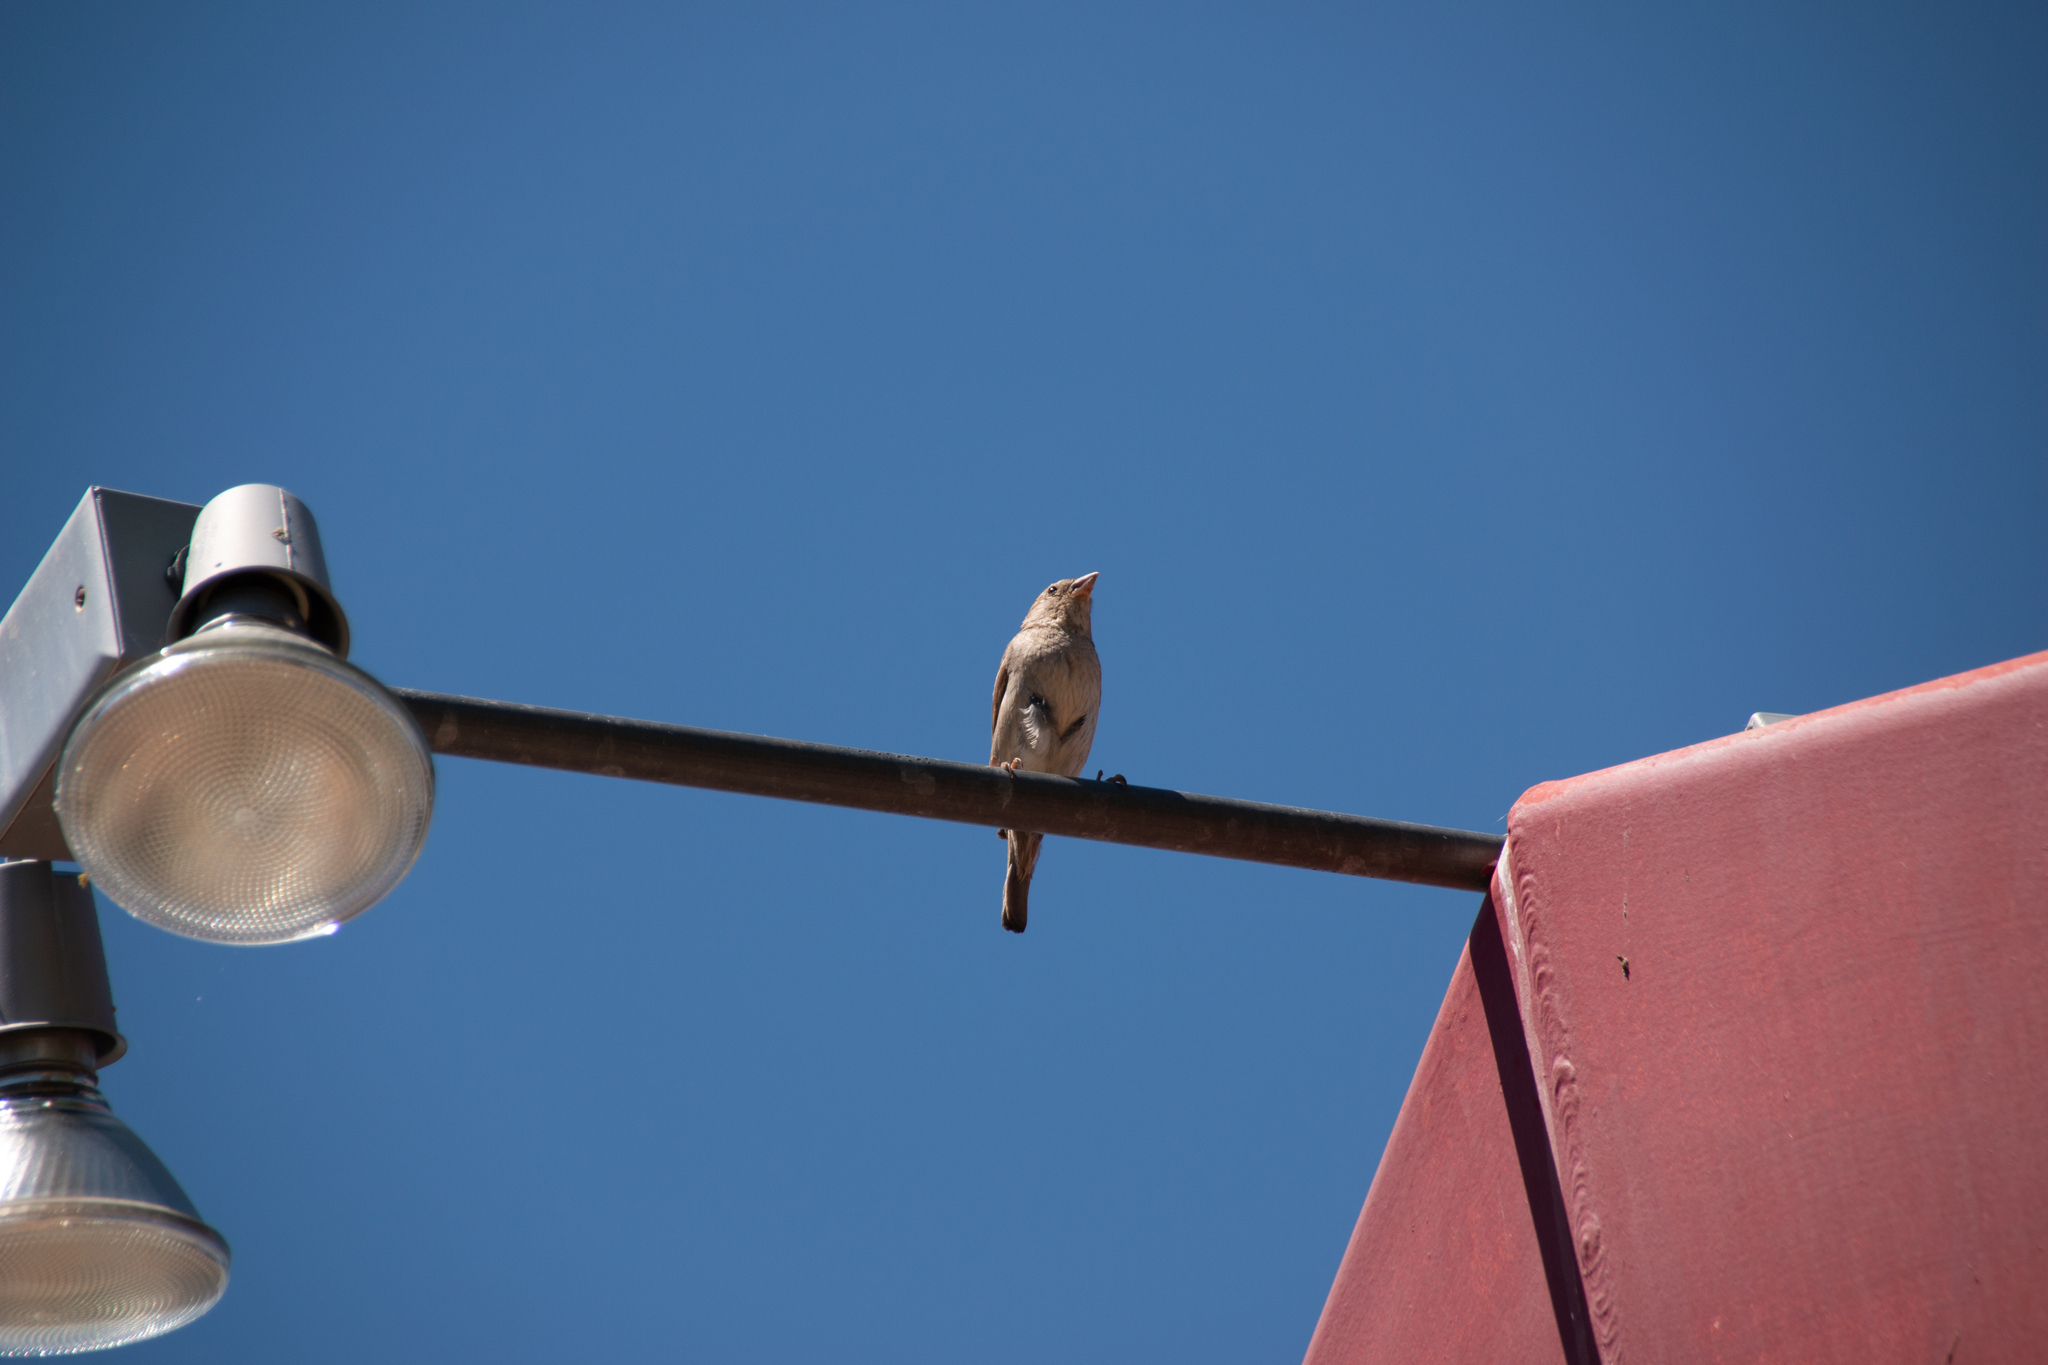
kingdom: Animalia
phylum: Chordata
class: Aves
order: Passeriformes
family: Passeridae
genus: Passer
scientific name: Passer domesticus
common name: House sparrow
